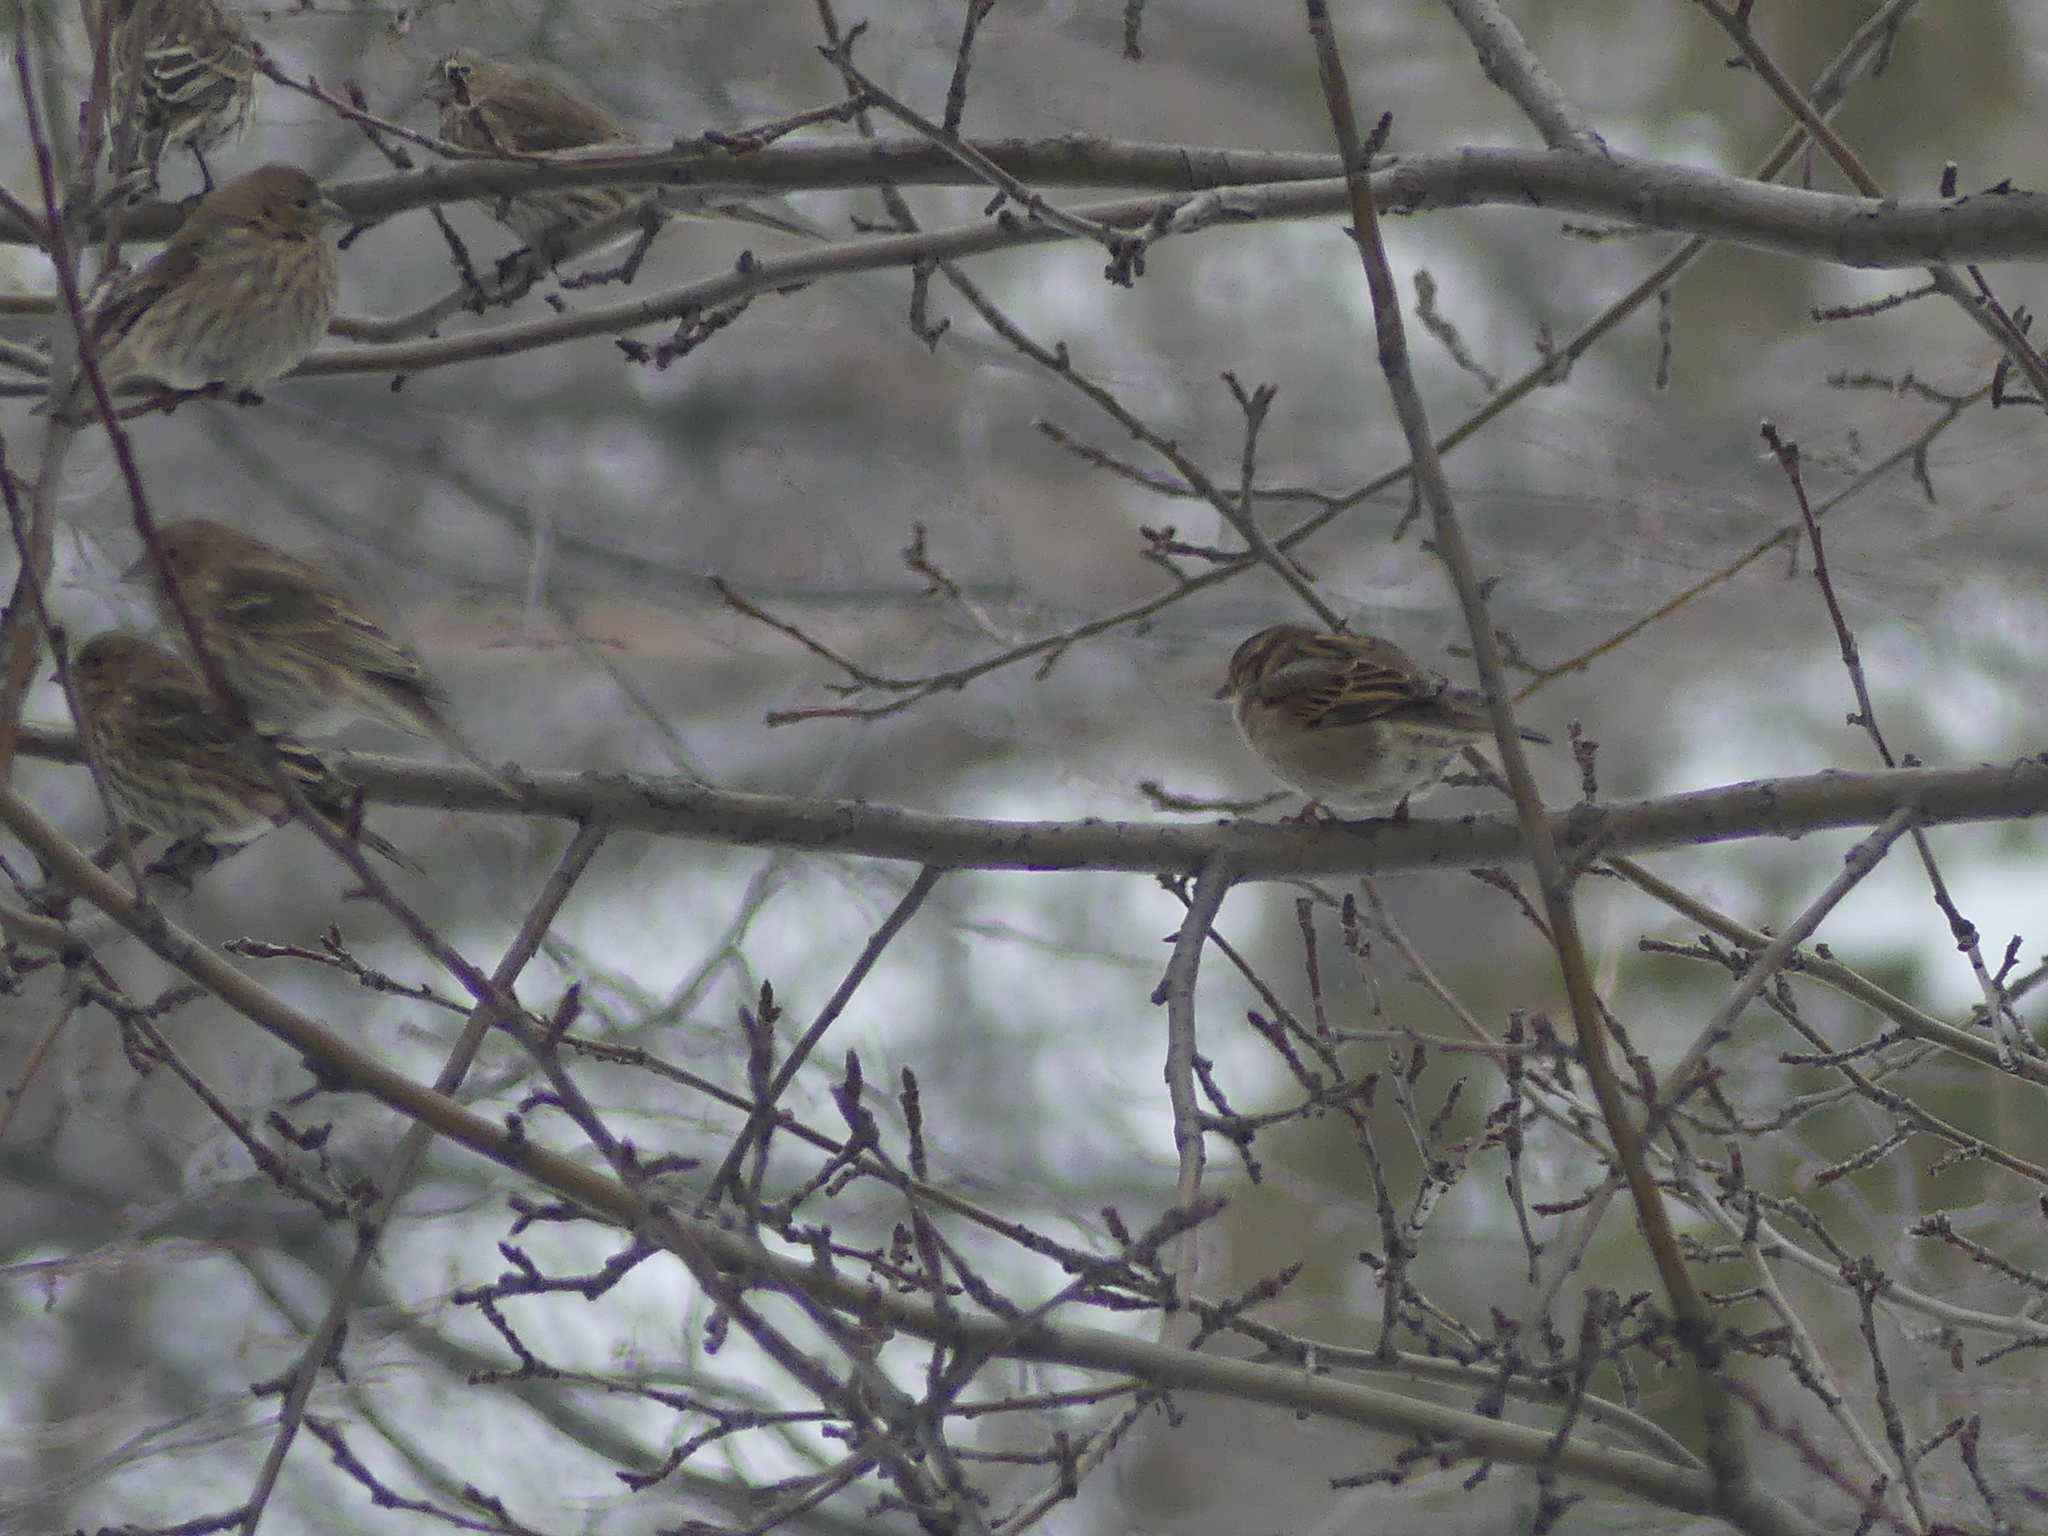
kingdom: Animalia
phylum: Chordata
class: Aves
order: Passeriformes
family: Passeridae
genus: Passer
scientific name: Passer domesticus
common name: House sparrow
